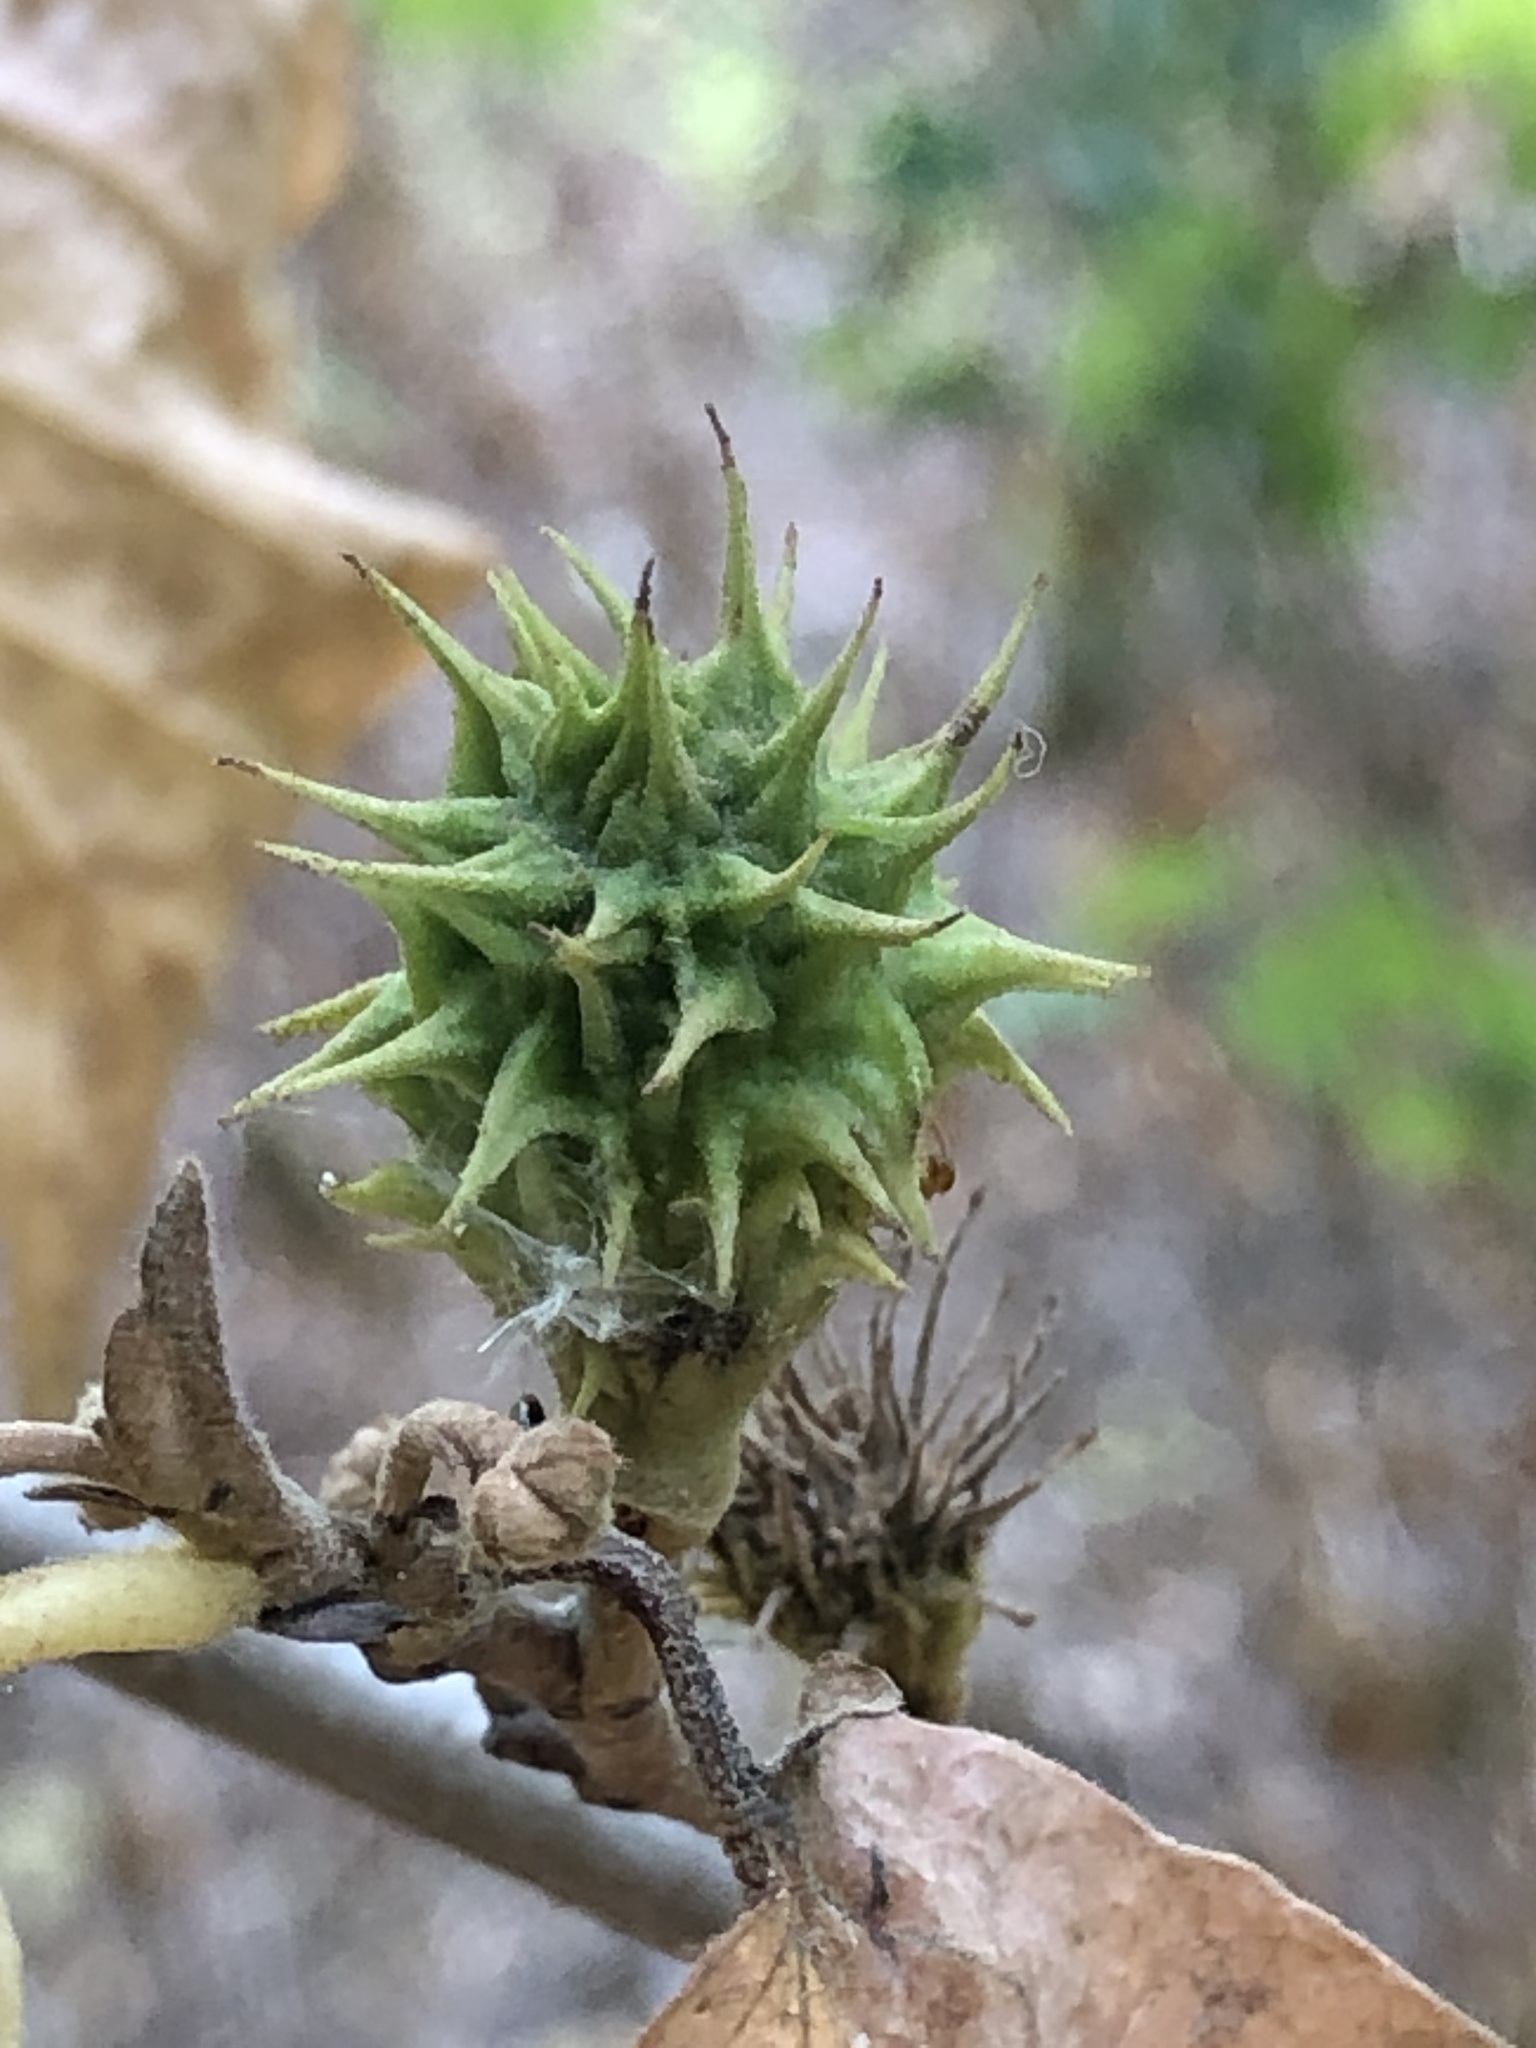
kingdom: Animalia
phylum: Arthropoda
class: Insecta
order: Hemiptera
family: Aphididae
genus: Hamamelistes
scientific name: Hamamelistes spinosus
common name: Witch hazel gall aphid
